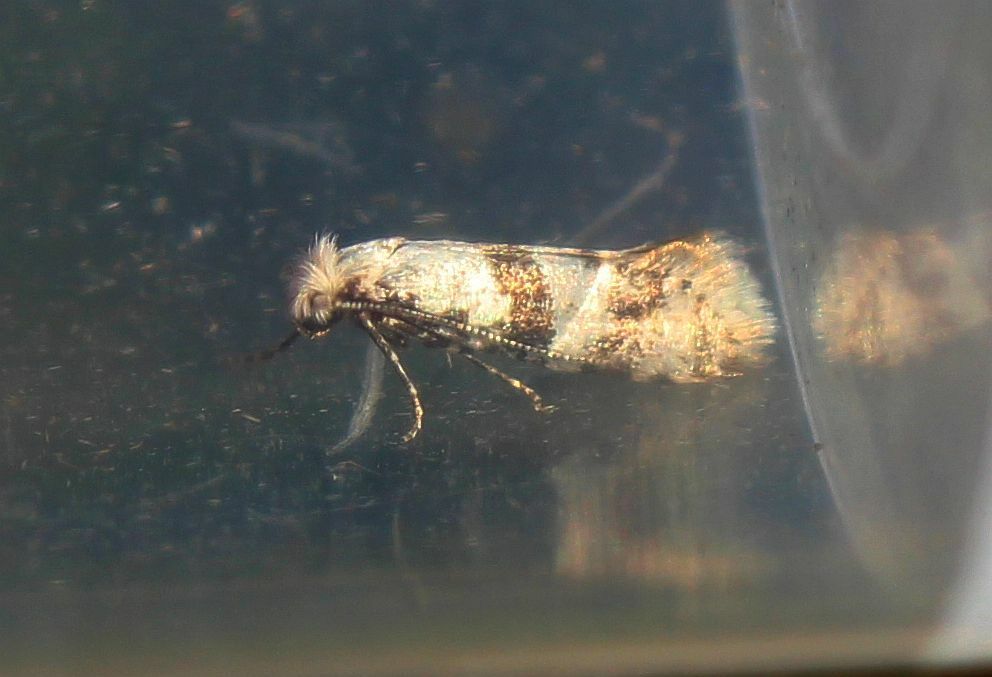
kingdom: Animalia
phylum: Arthropoda
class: Insecta
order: Lepidoptera
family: Yponomeutidae
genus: Scythropia
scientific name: Scythropia crataegella
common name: Hawthorn moth
